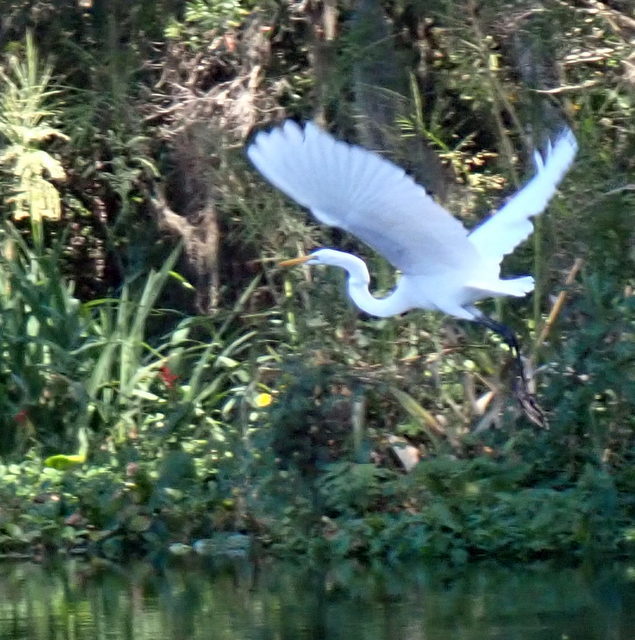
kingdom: Animalia
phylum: Chordata
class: Aves
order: Pelecaniformes
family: Ardeidae
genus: Ardea
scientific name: Ardea alba
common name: Great egret
